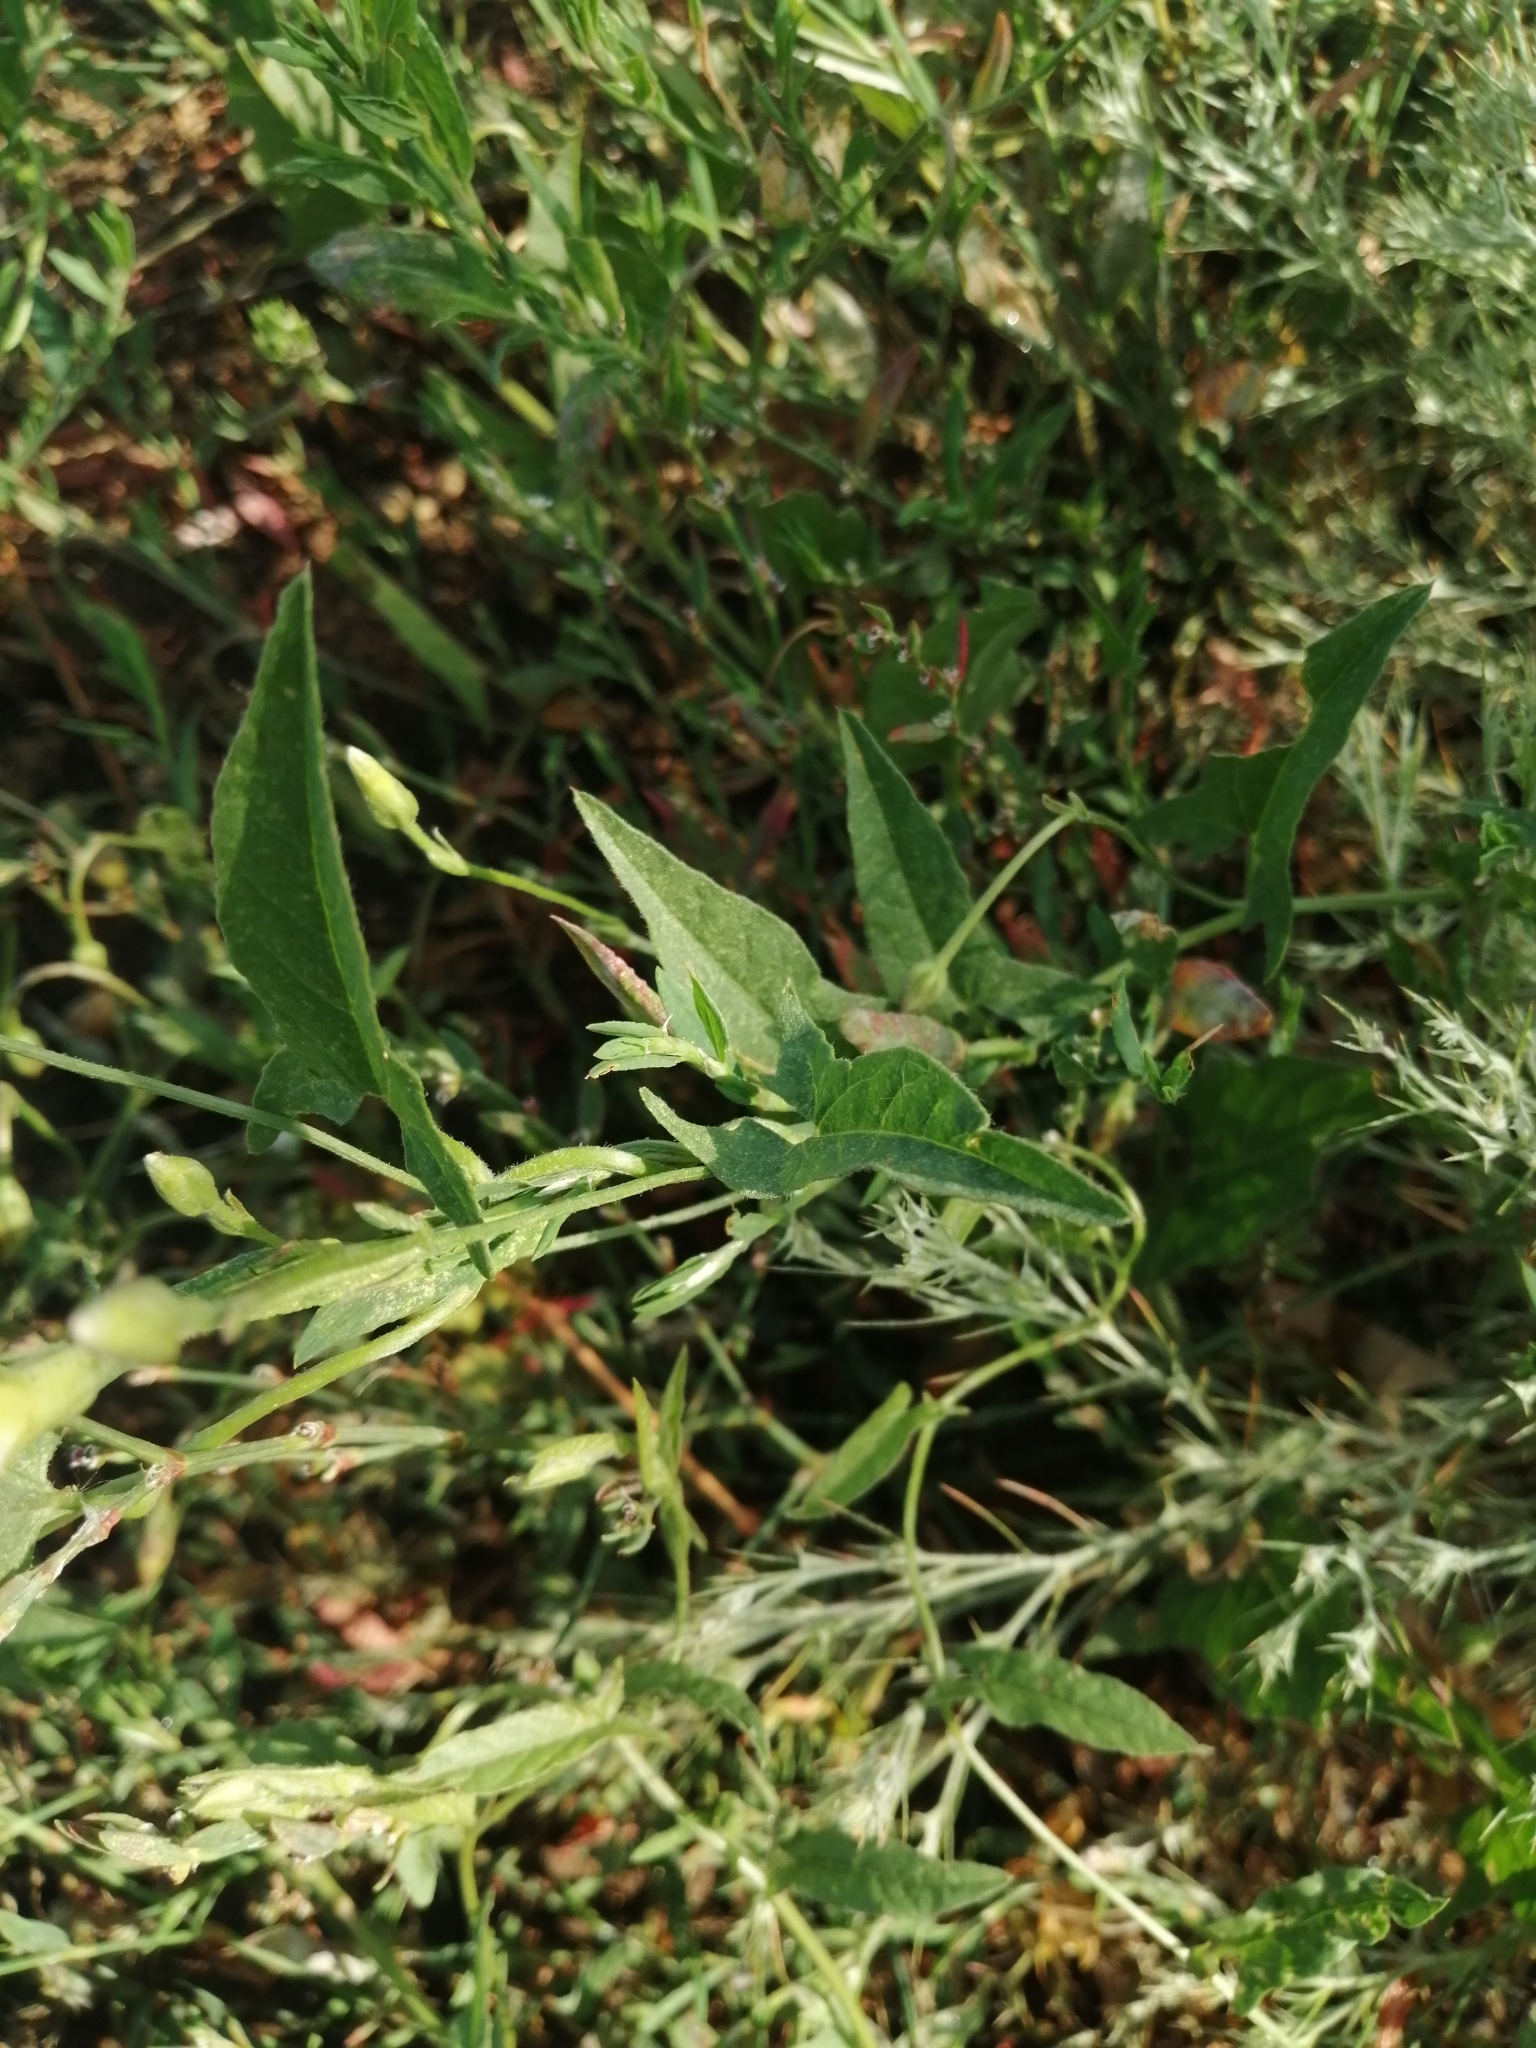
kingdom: Plantae
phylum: Tracheophyta
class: Magnoliopsida
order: Solanales
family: Convolvulaceae
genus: Convolvulus
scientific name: Convolvulus arvensis
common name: Field bindweed
